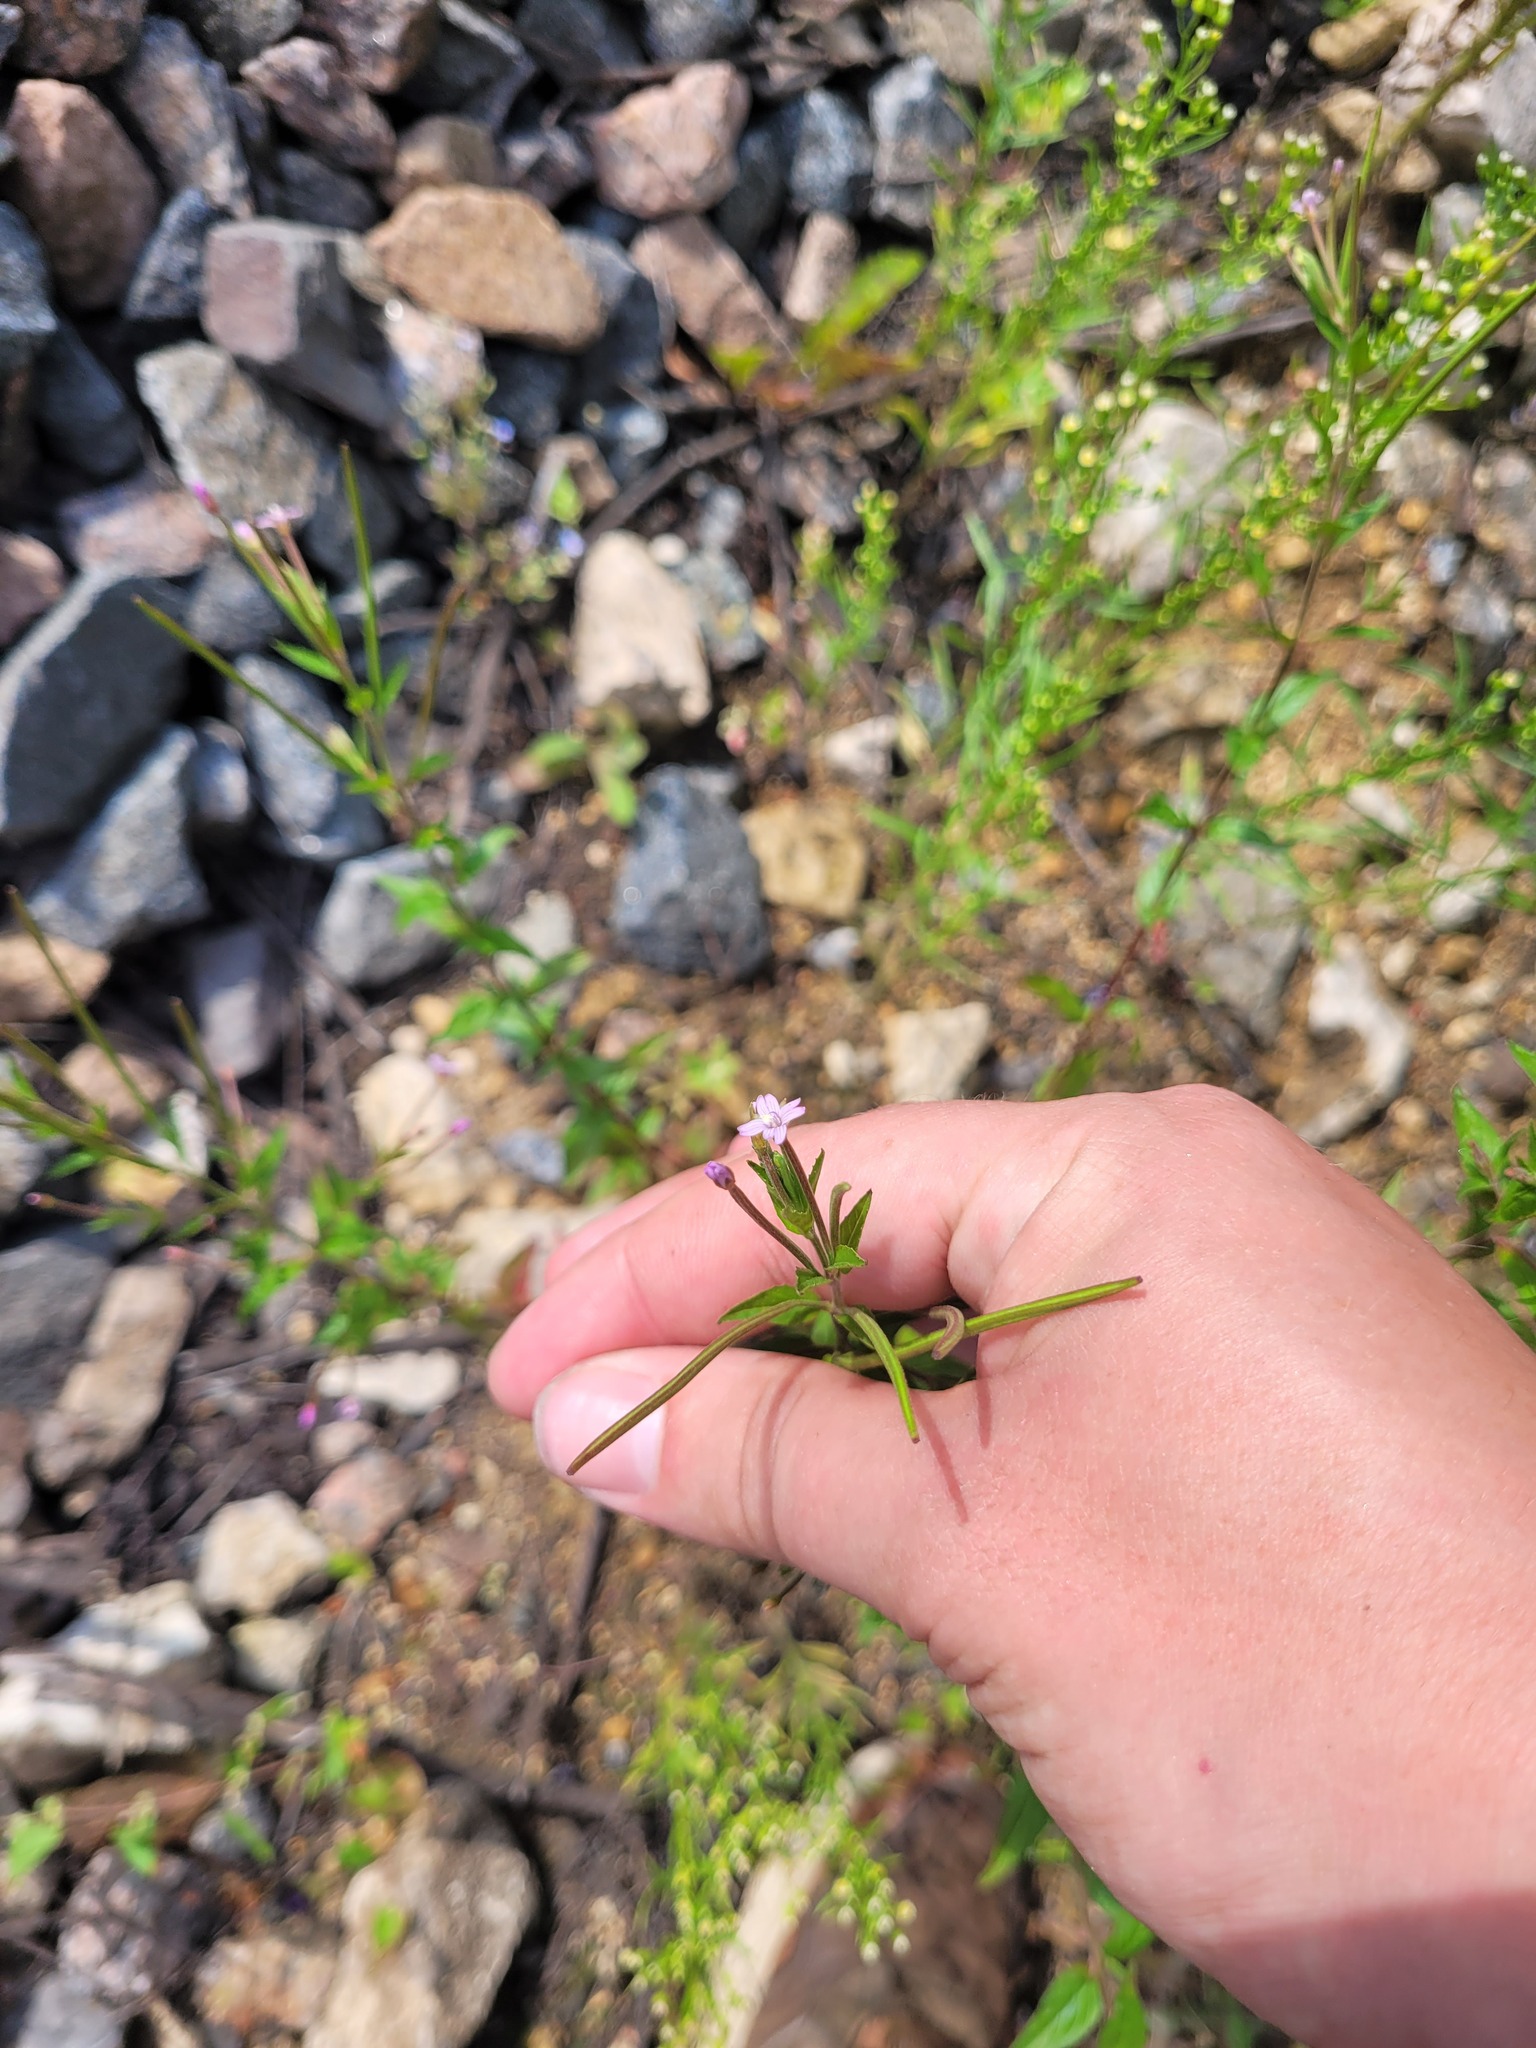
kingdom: Plantae
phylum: Tracheophyta
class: Magnoliopsida
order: Myrtales
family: Onagraceae
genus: Epilobium
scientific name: Epilobium ciliatum
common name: American willowherb
